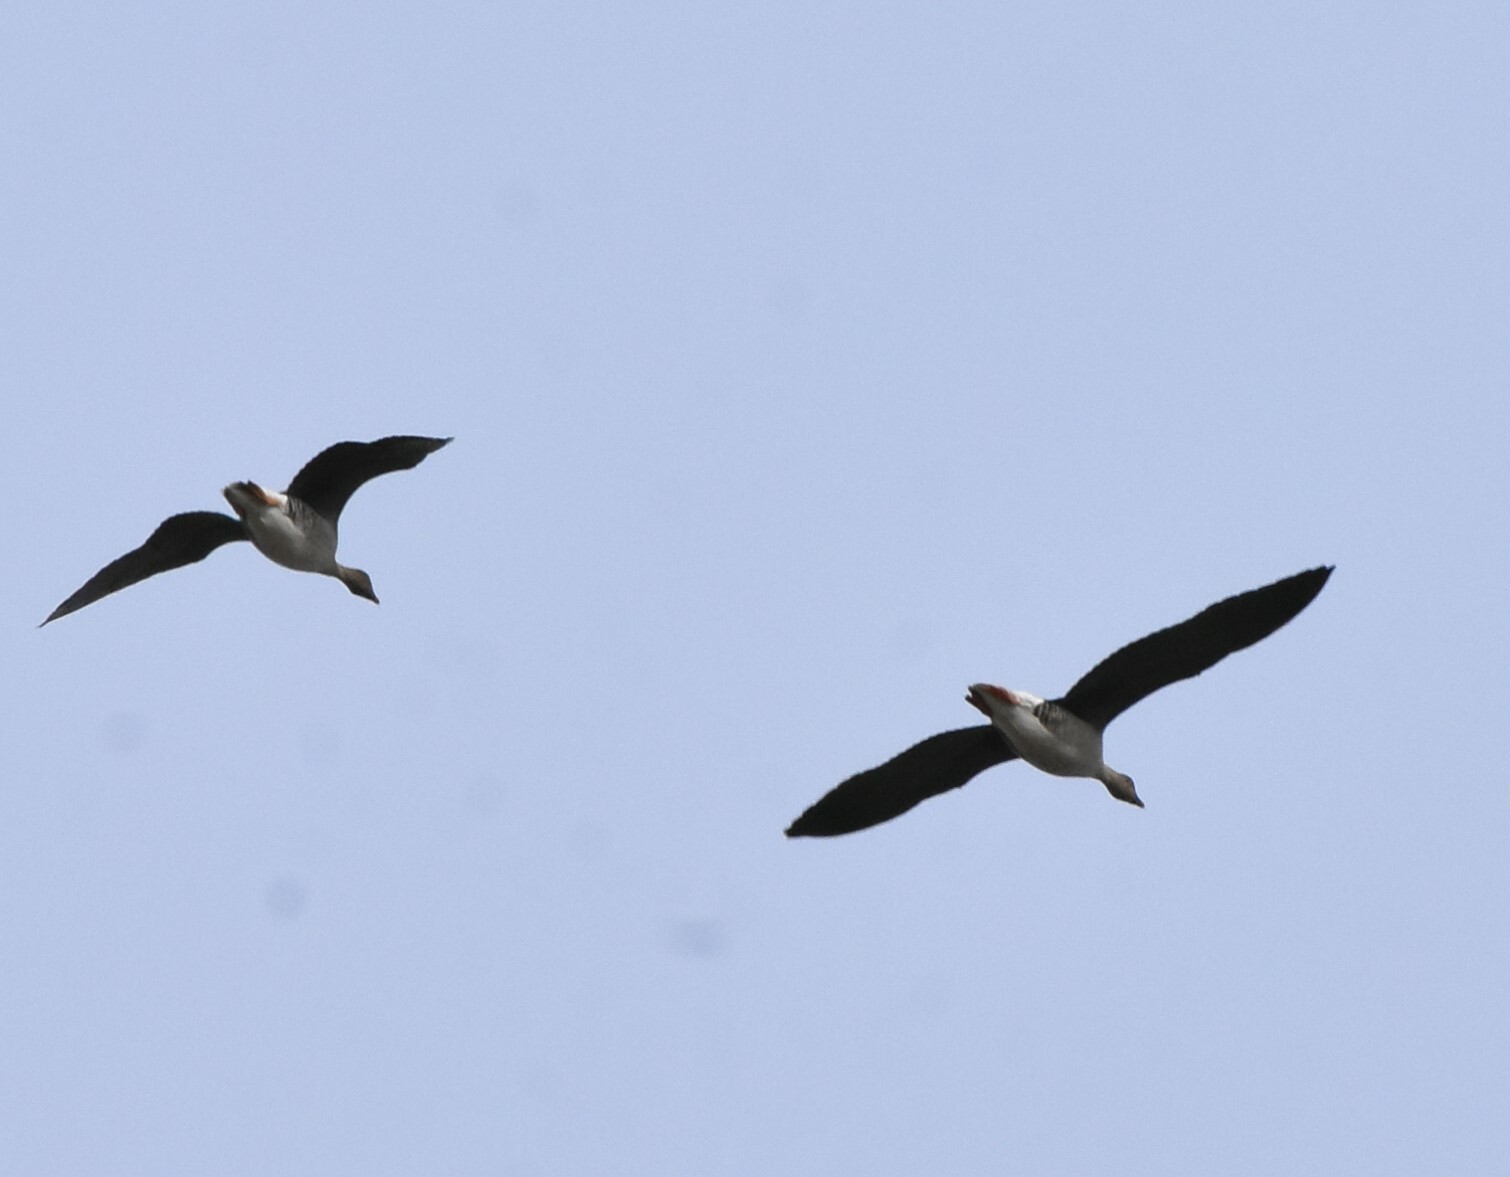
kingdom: Animalia
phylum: Chordata
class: Aves
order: Anseriformes
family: Anatidae
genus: Anser
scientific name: Anser fabalis
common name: Bean goose
